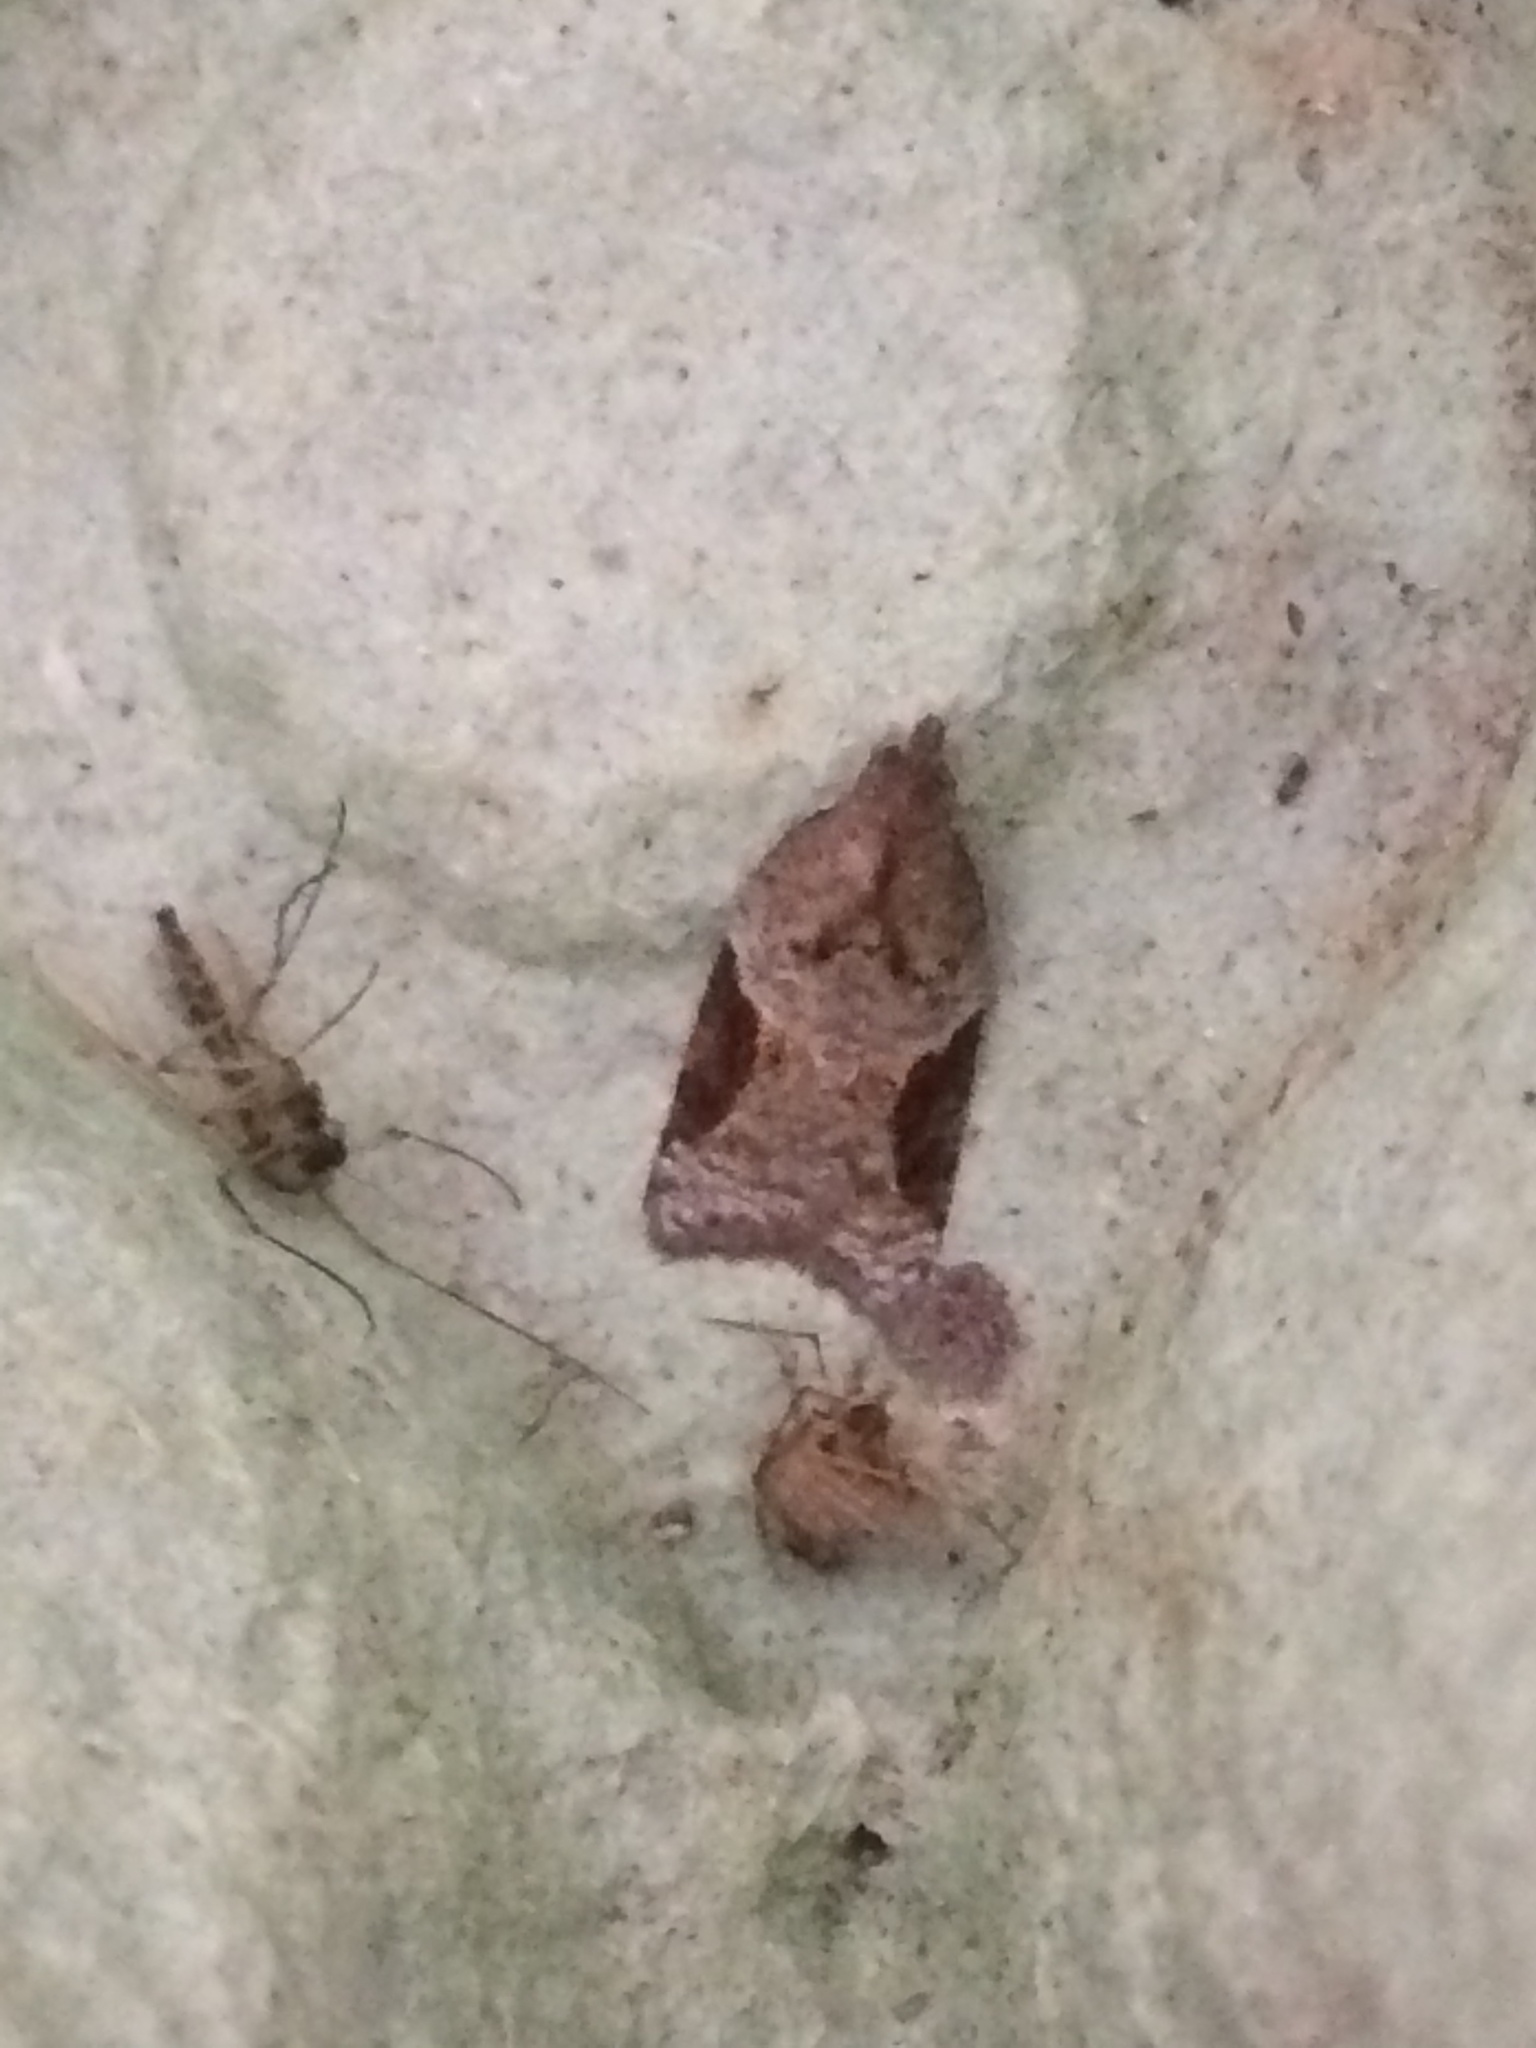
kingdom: Animalia
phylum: Arthropoda
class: Insecta
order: Lepidoptera
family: Tortricidae
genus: Acleris
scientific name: Acleris laterana
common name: Dark-triangle button
